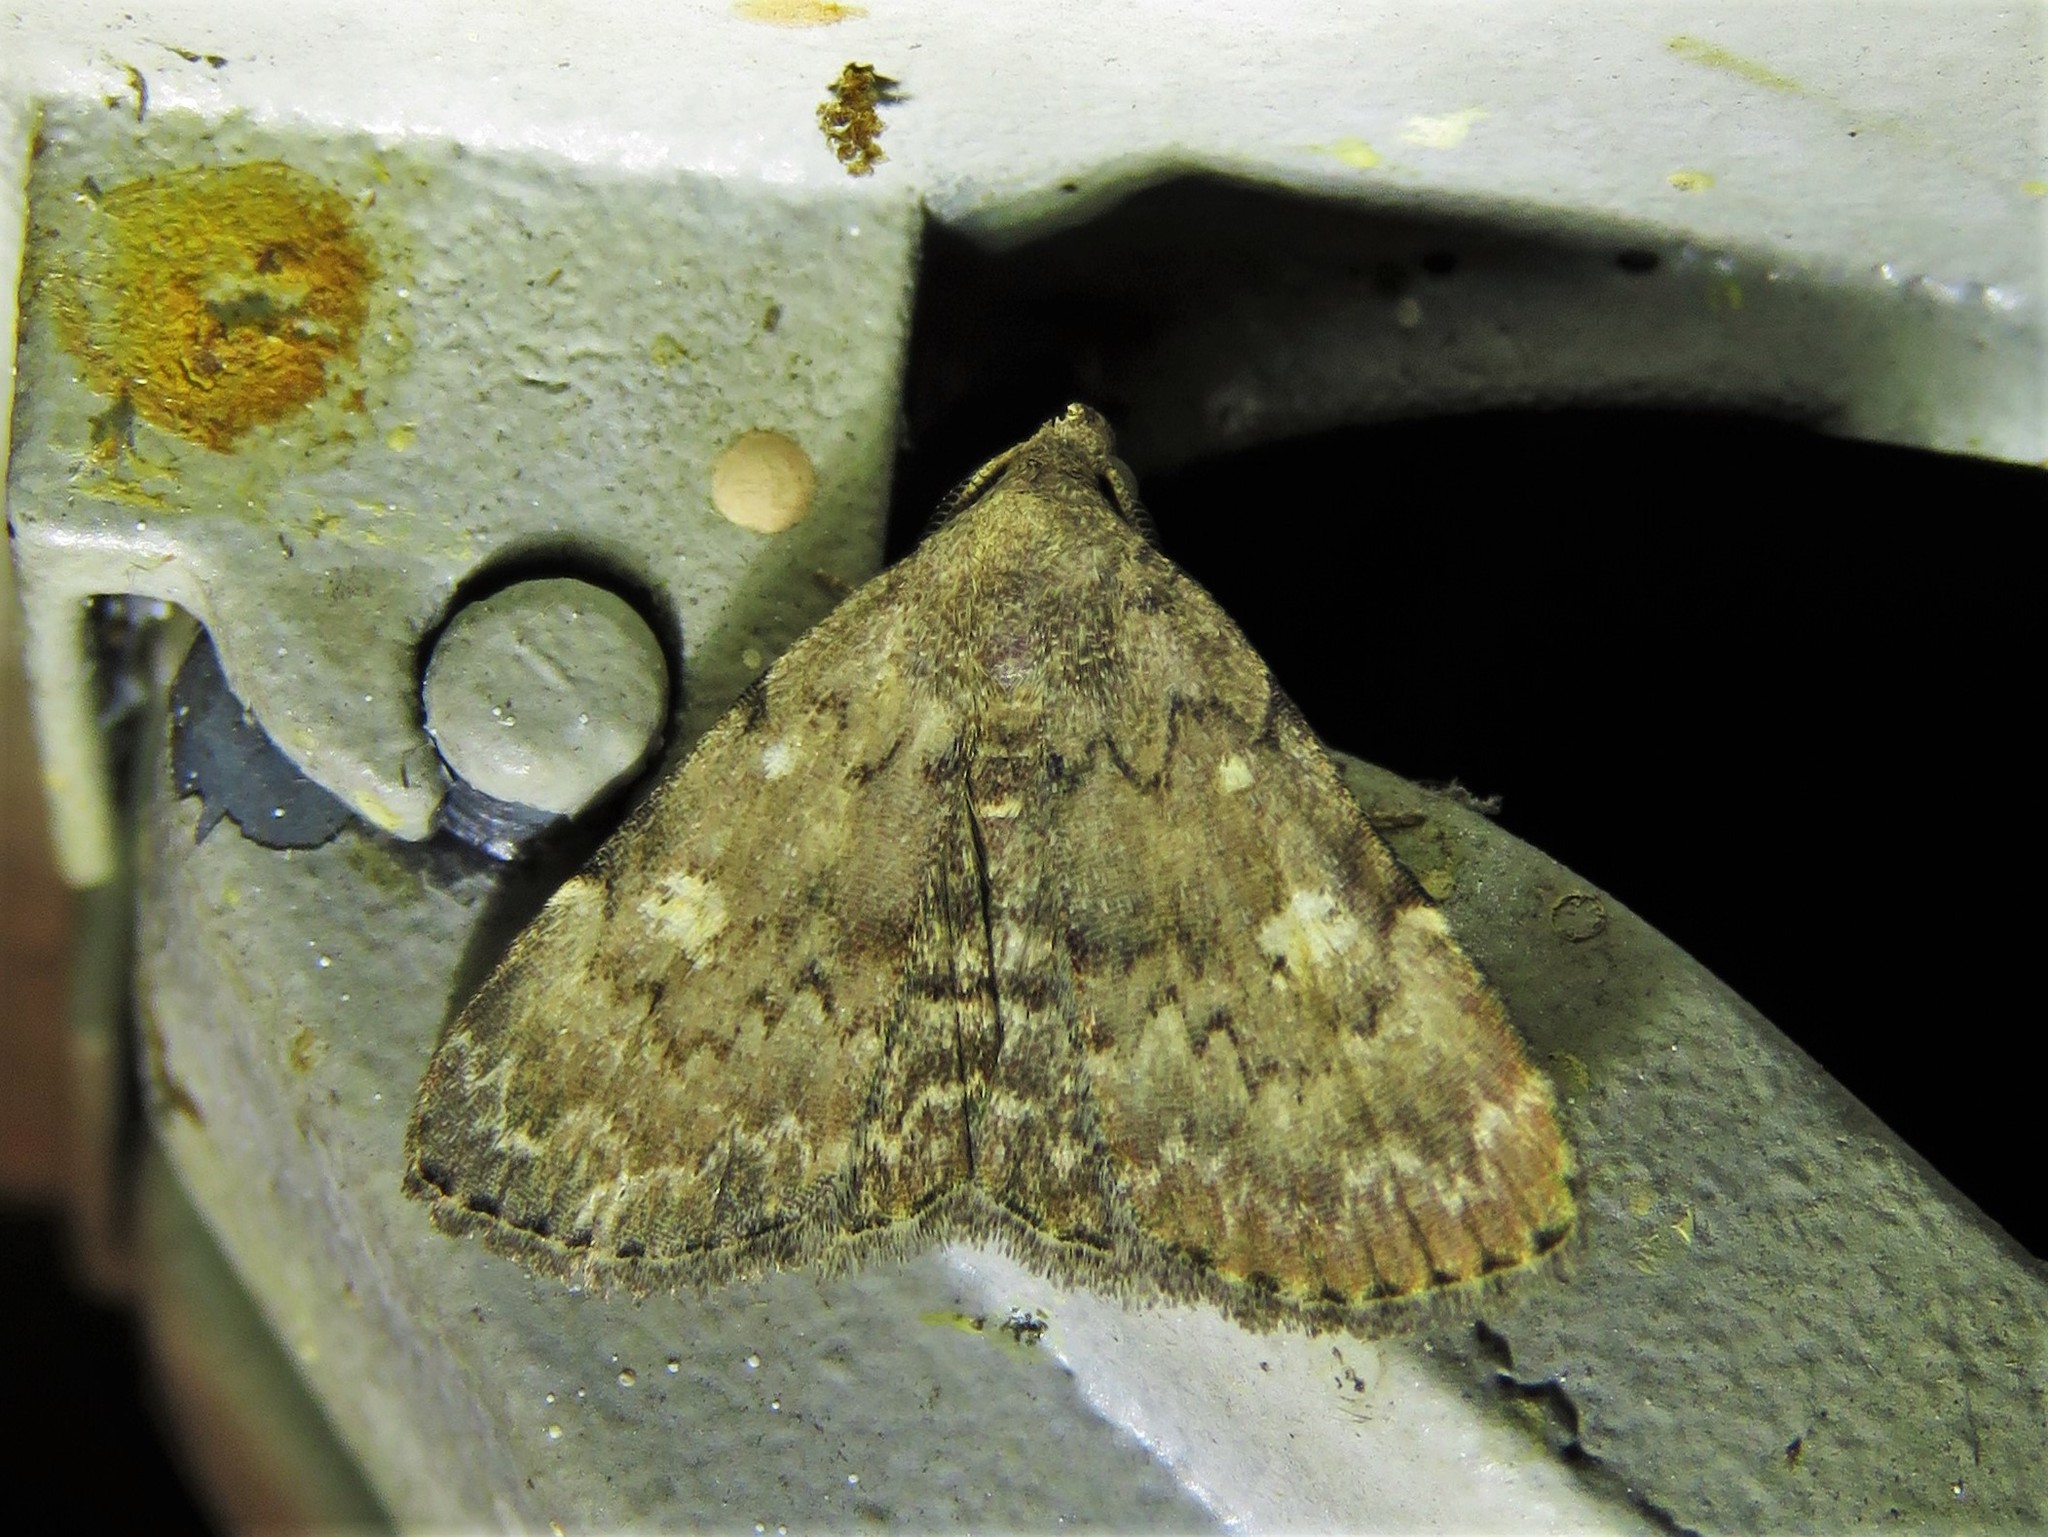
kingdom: Animalia
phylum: Arthropoda
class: Insecta
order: Lepidoptera
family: Erebidae
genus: Idia
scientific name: Idia aemula
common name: Common idia moth
